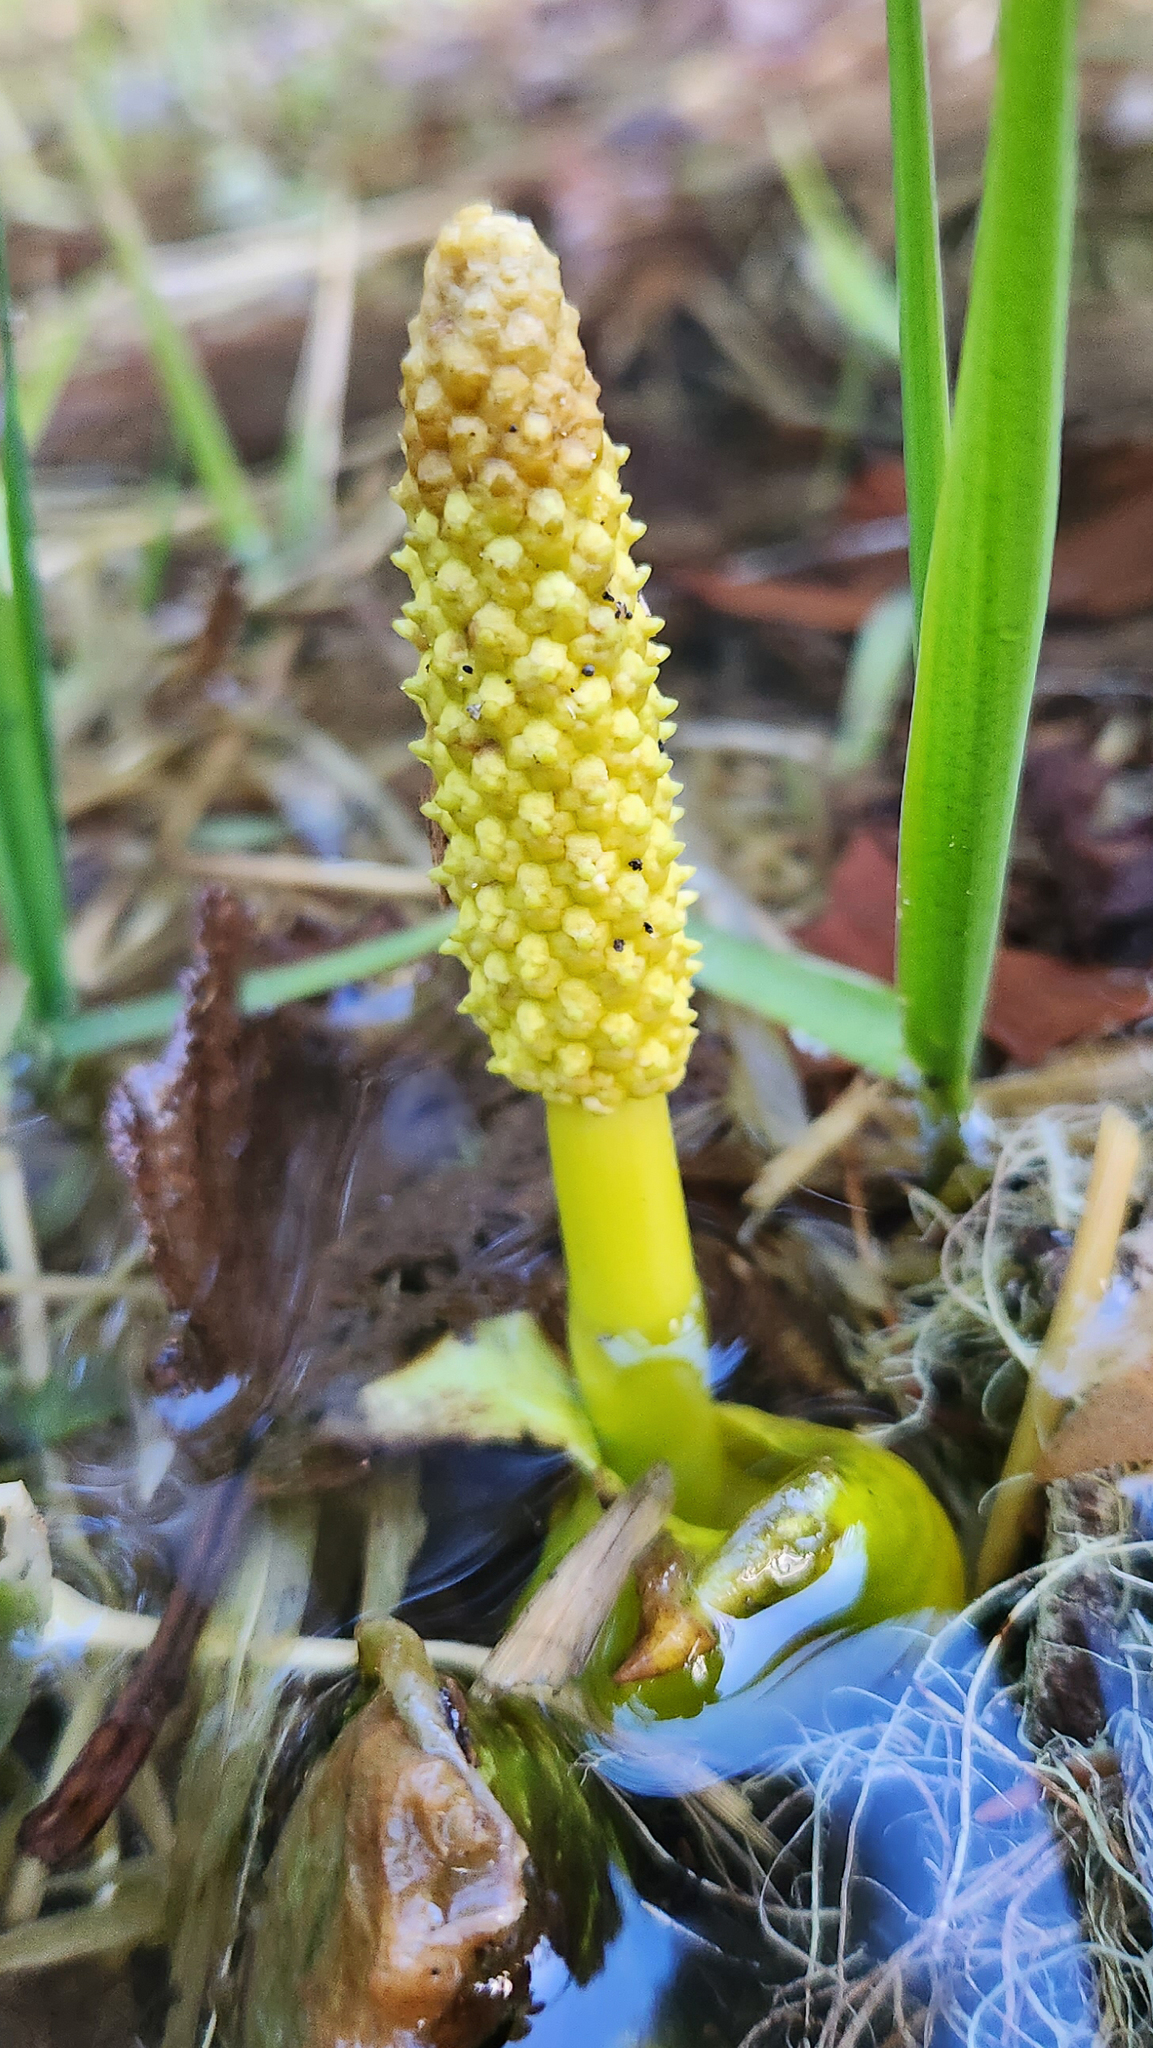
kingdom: Plantae
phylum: Tracheophyta
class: Liliopsida
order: Alismatales
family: Araceae
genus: Lysichiton
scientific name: Lysichiton americanus
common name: American skunk cabbage
